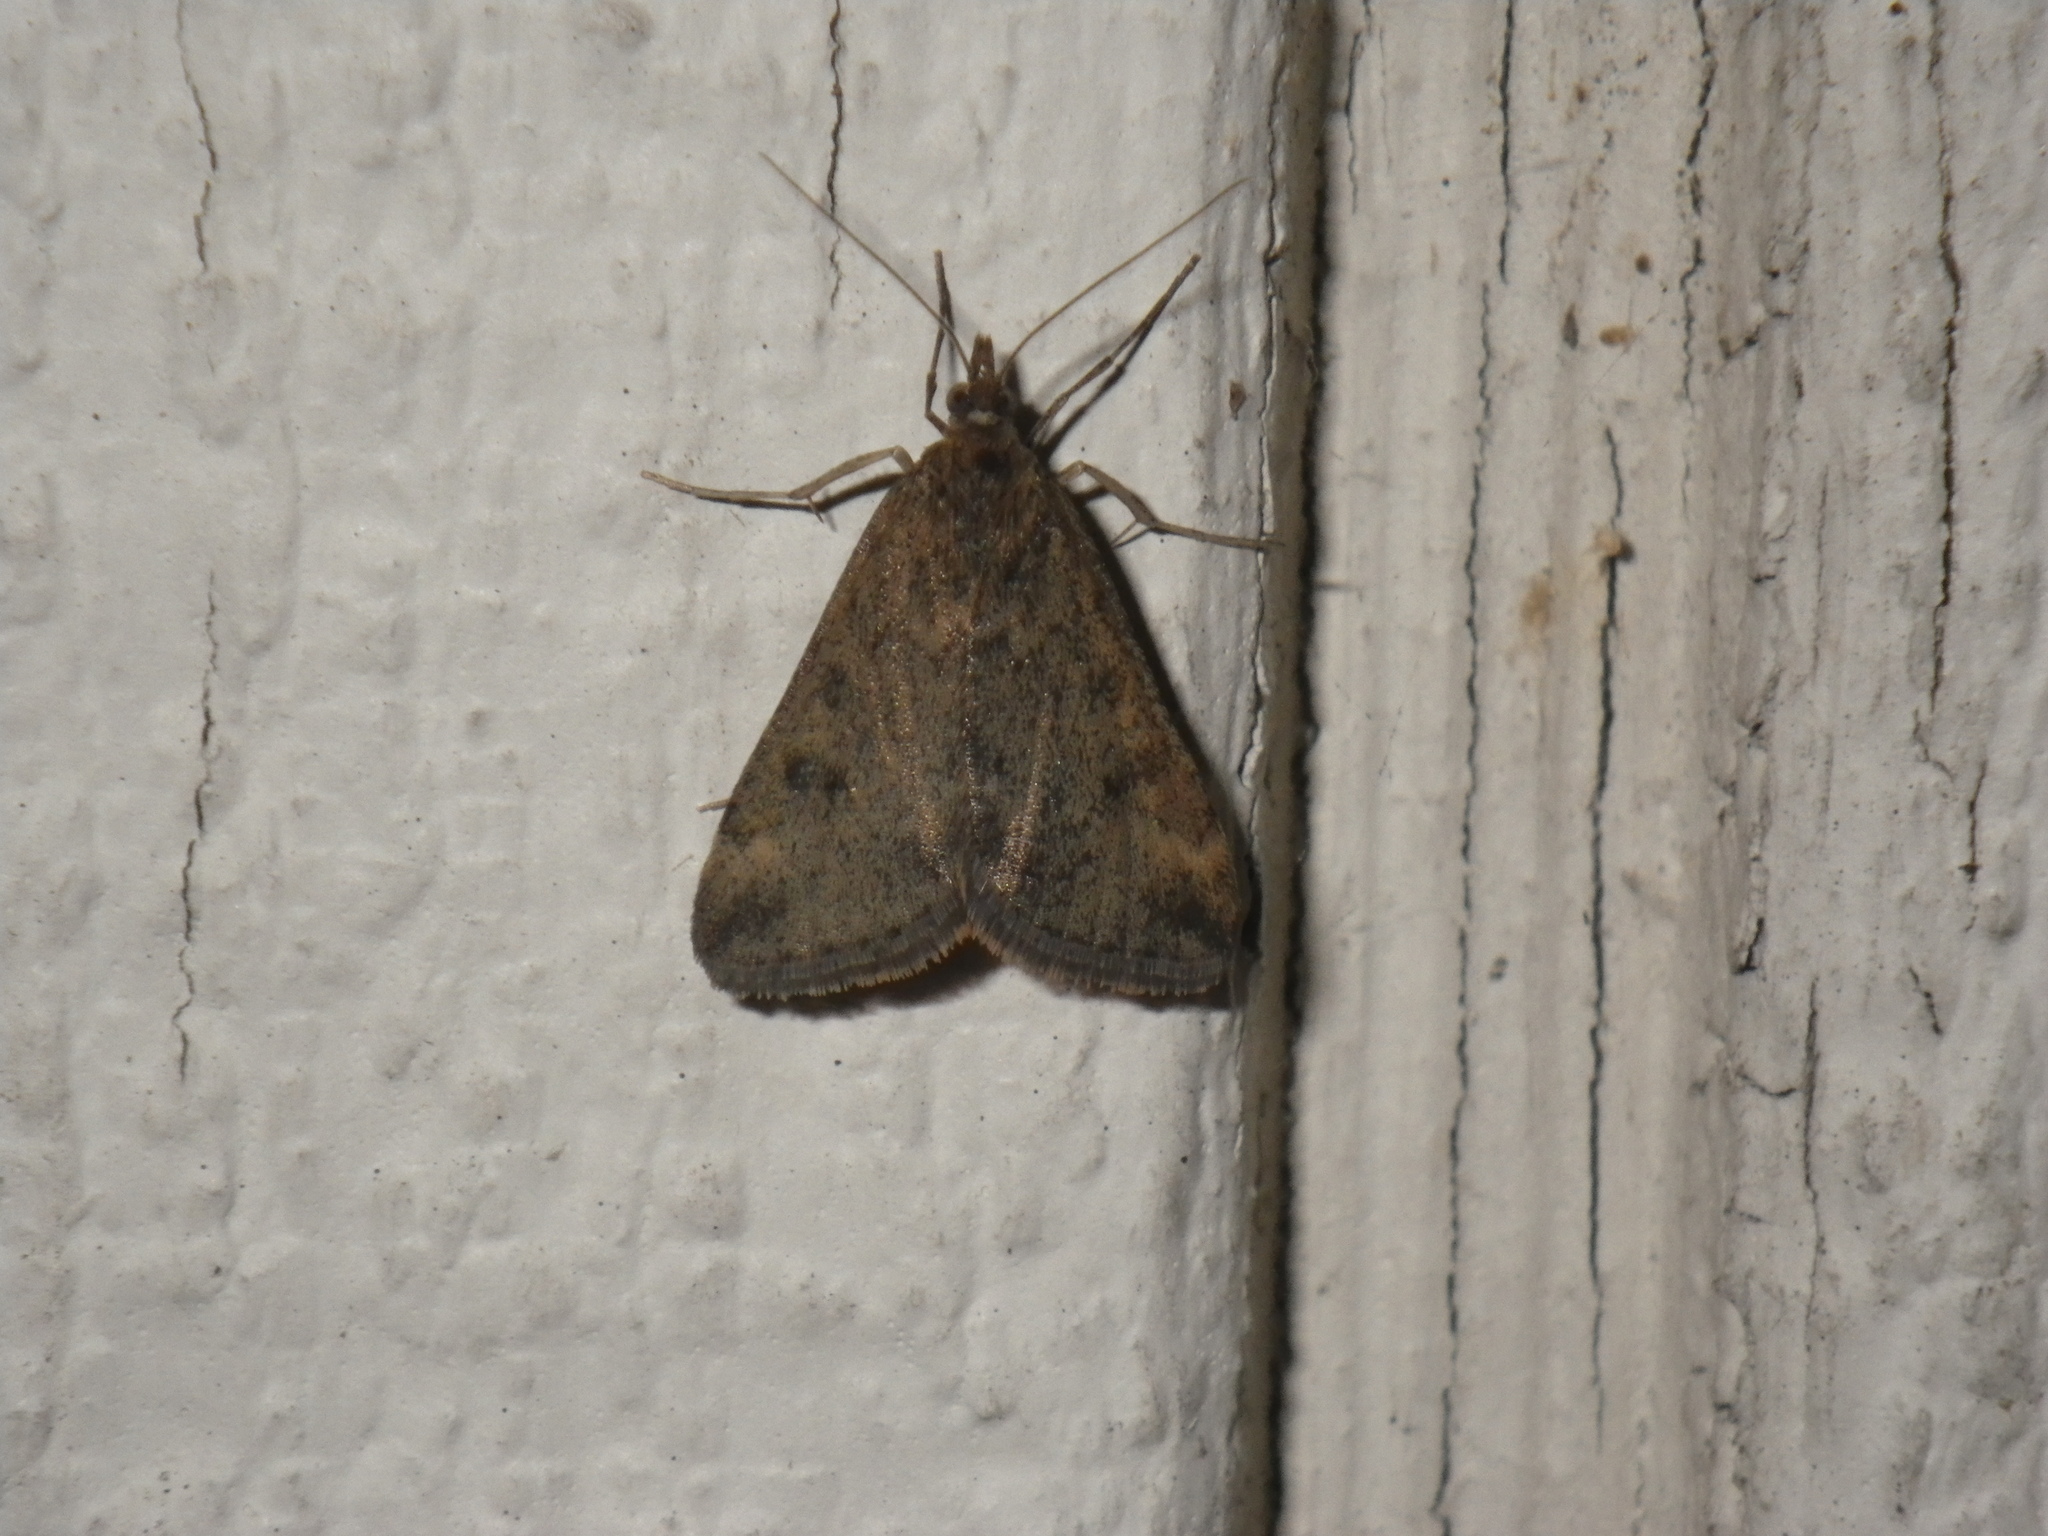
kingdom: Animalia
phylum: Arthropoda
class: Insecta
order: Lepidoptera
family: Crambidae
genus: Udea
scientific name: Udea rubigalis
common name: Celery leaftier moth
